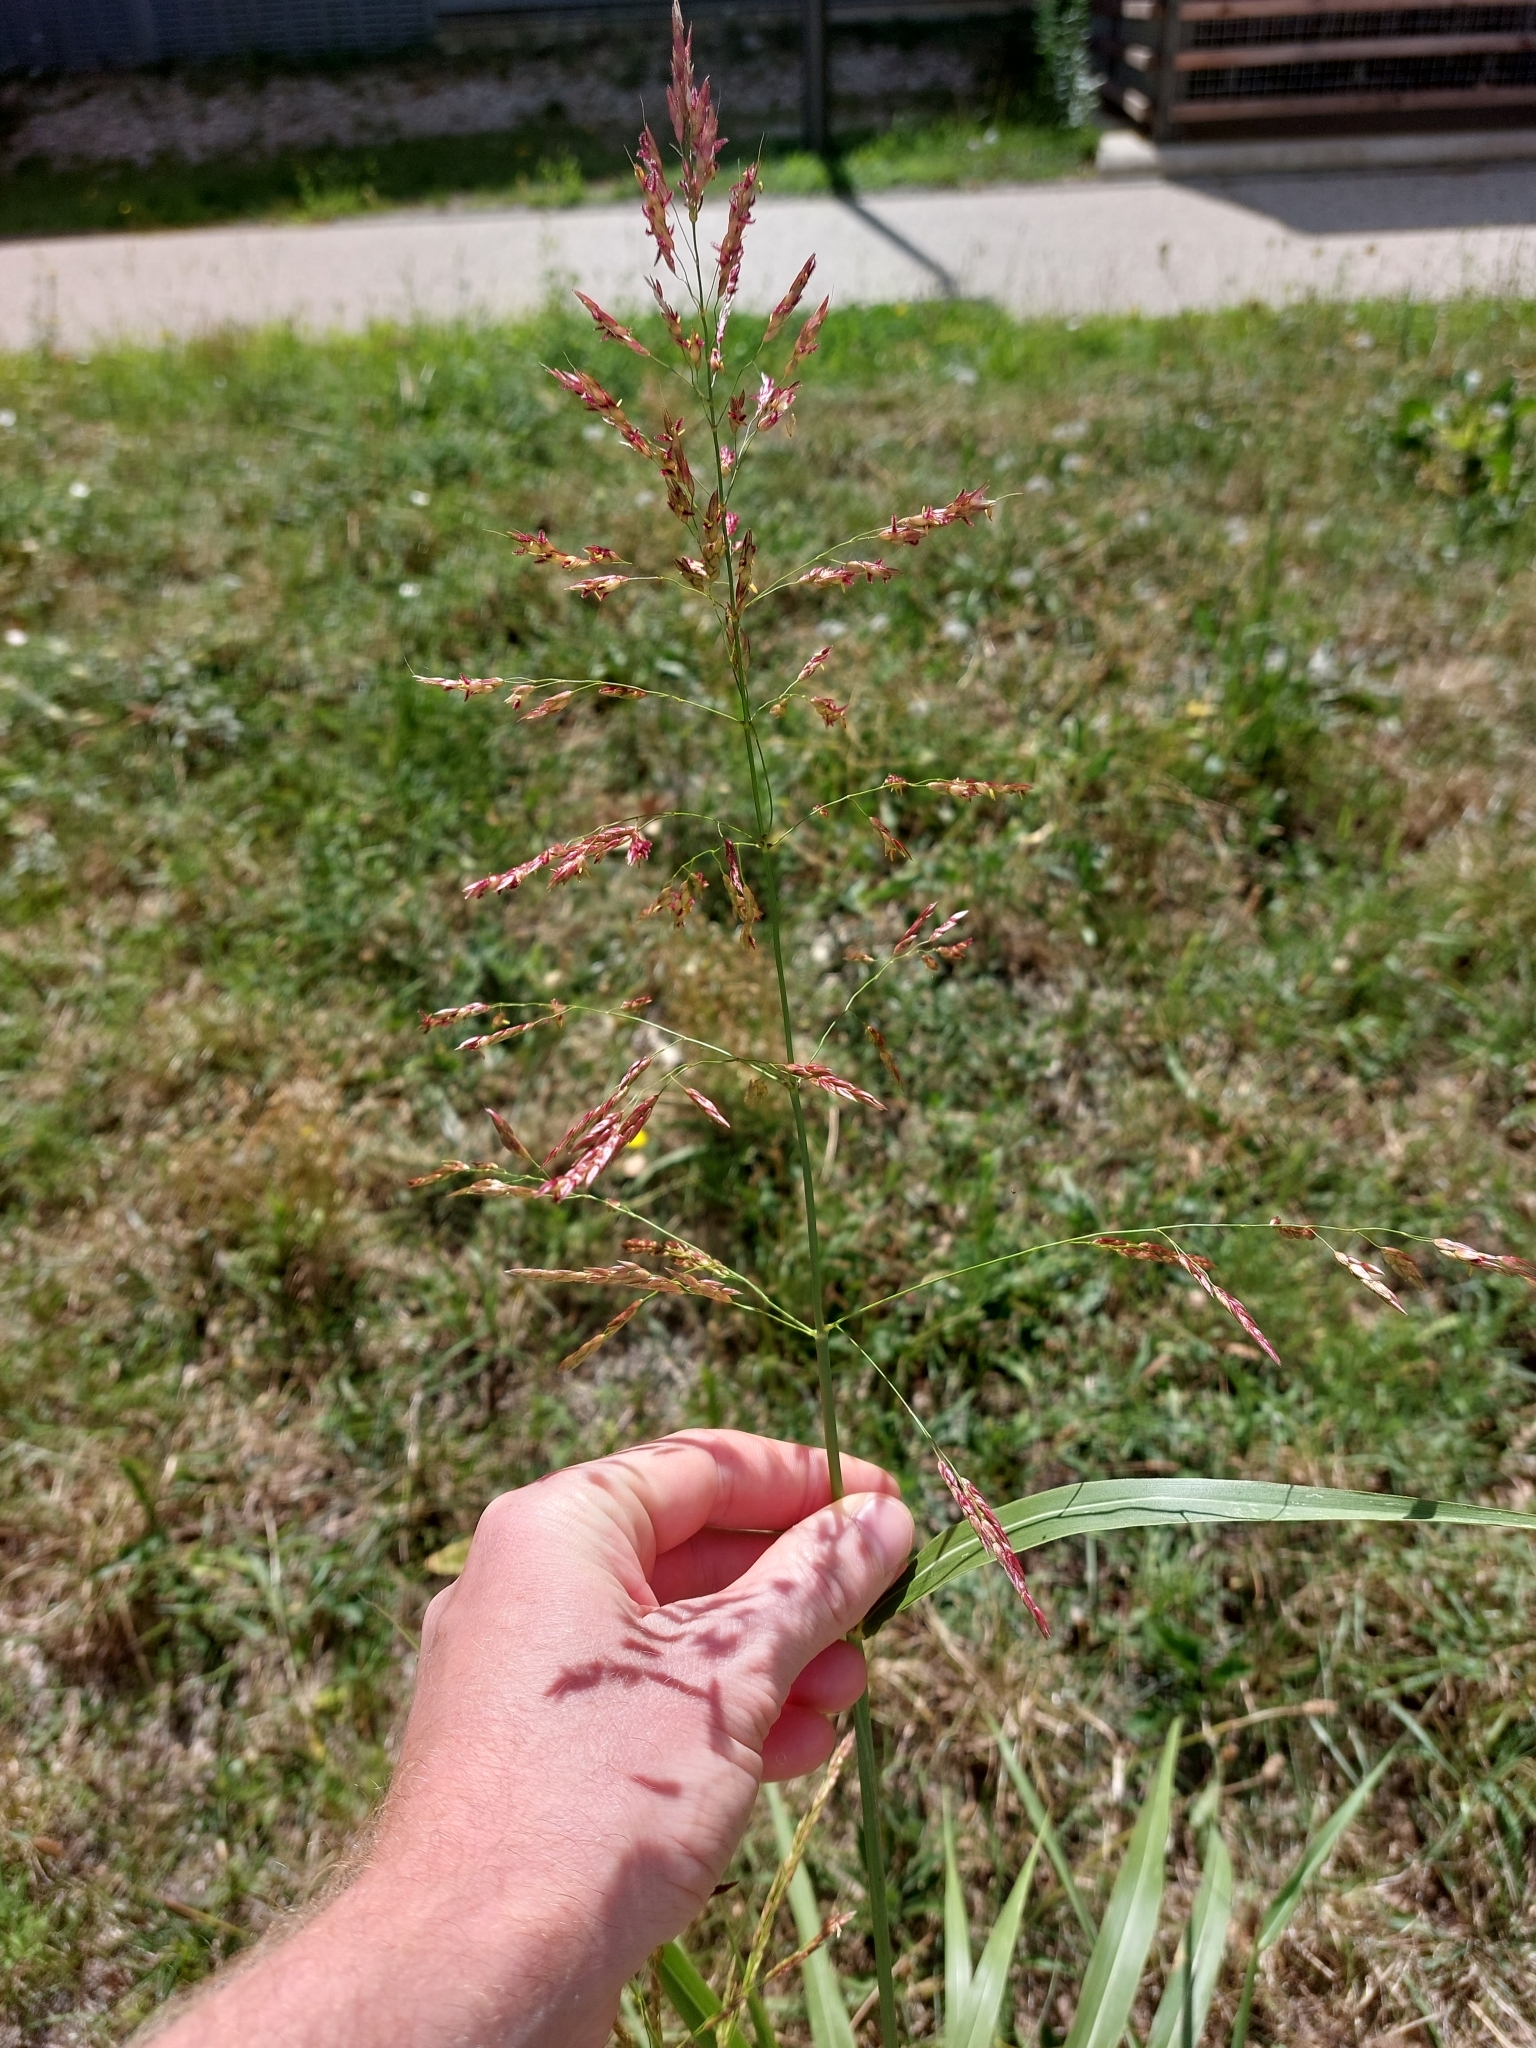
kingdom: Plantae
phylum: Tracheophyta
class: Liliopsida
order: Poales
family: Poaceae
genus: Sorghum
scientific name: Sorghum halepense
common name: Johnson-grass
